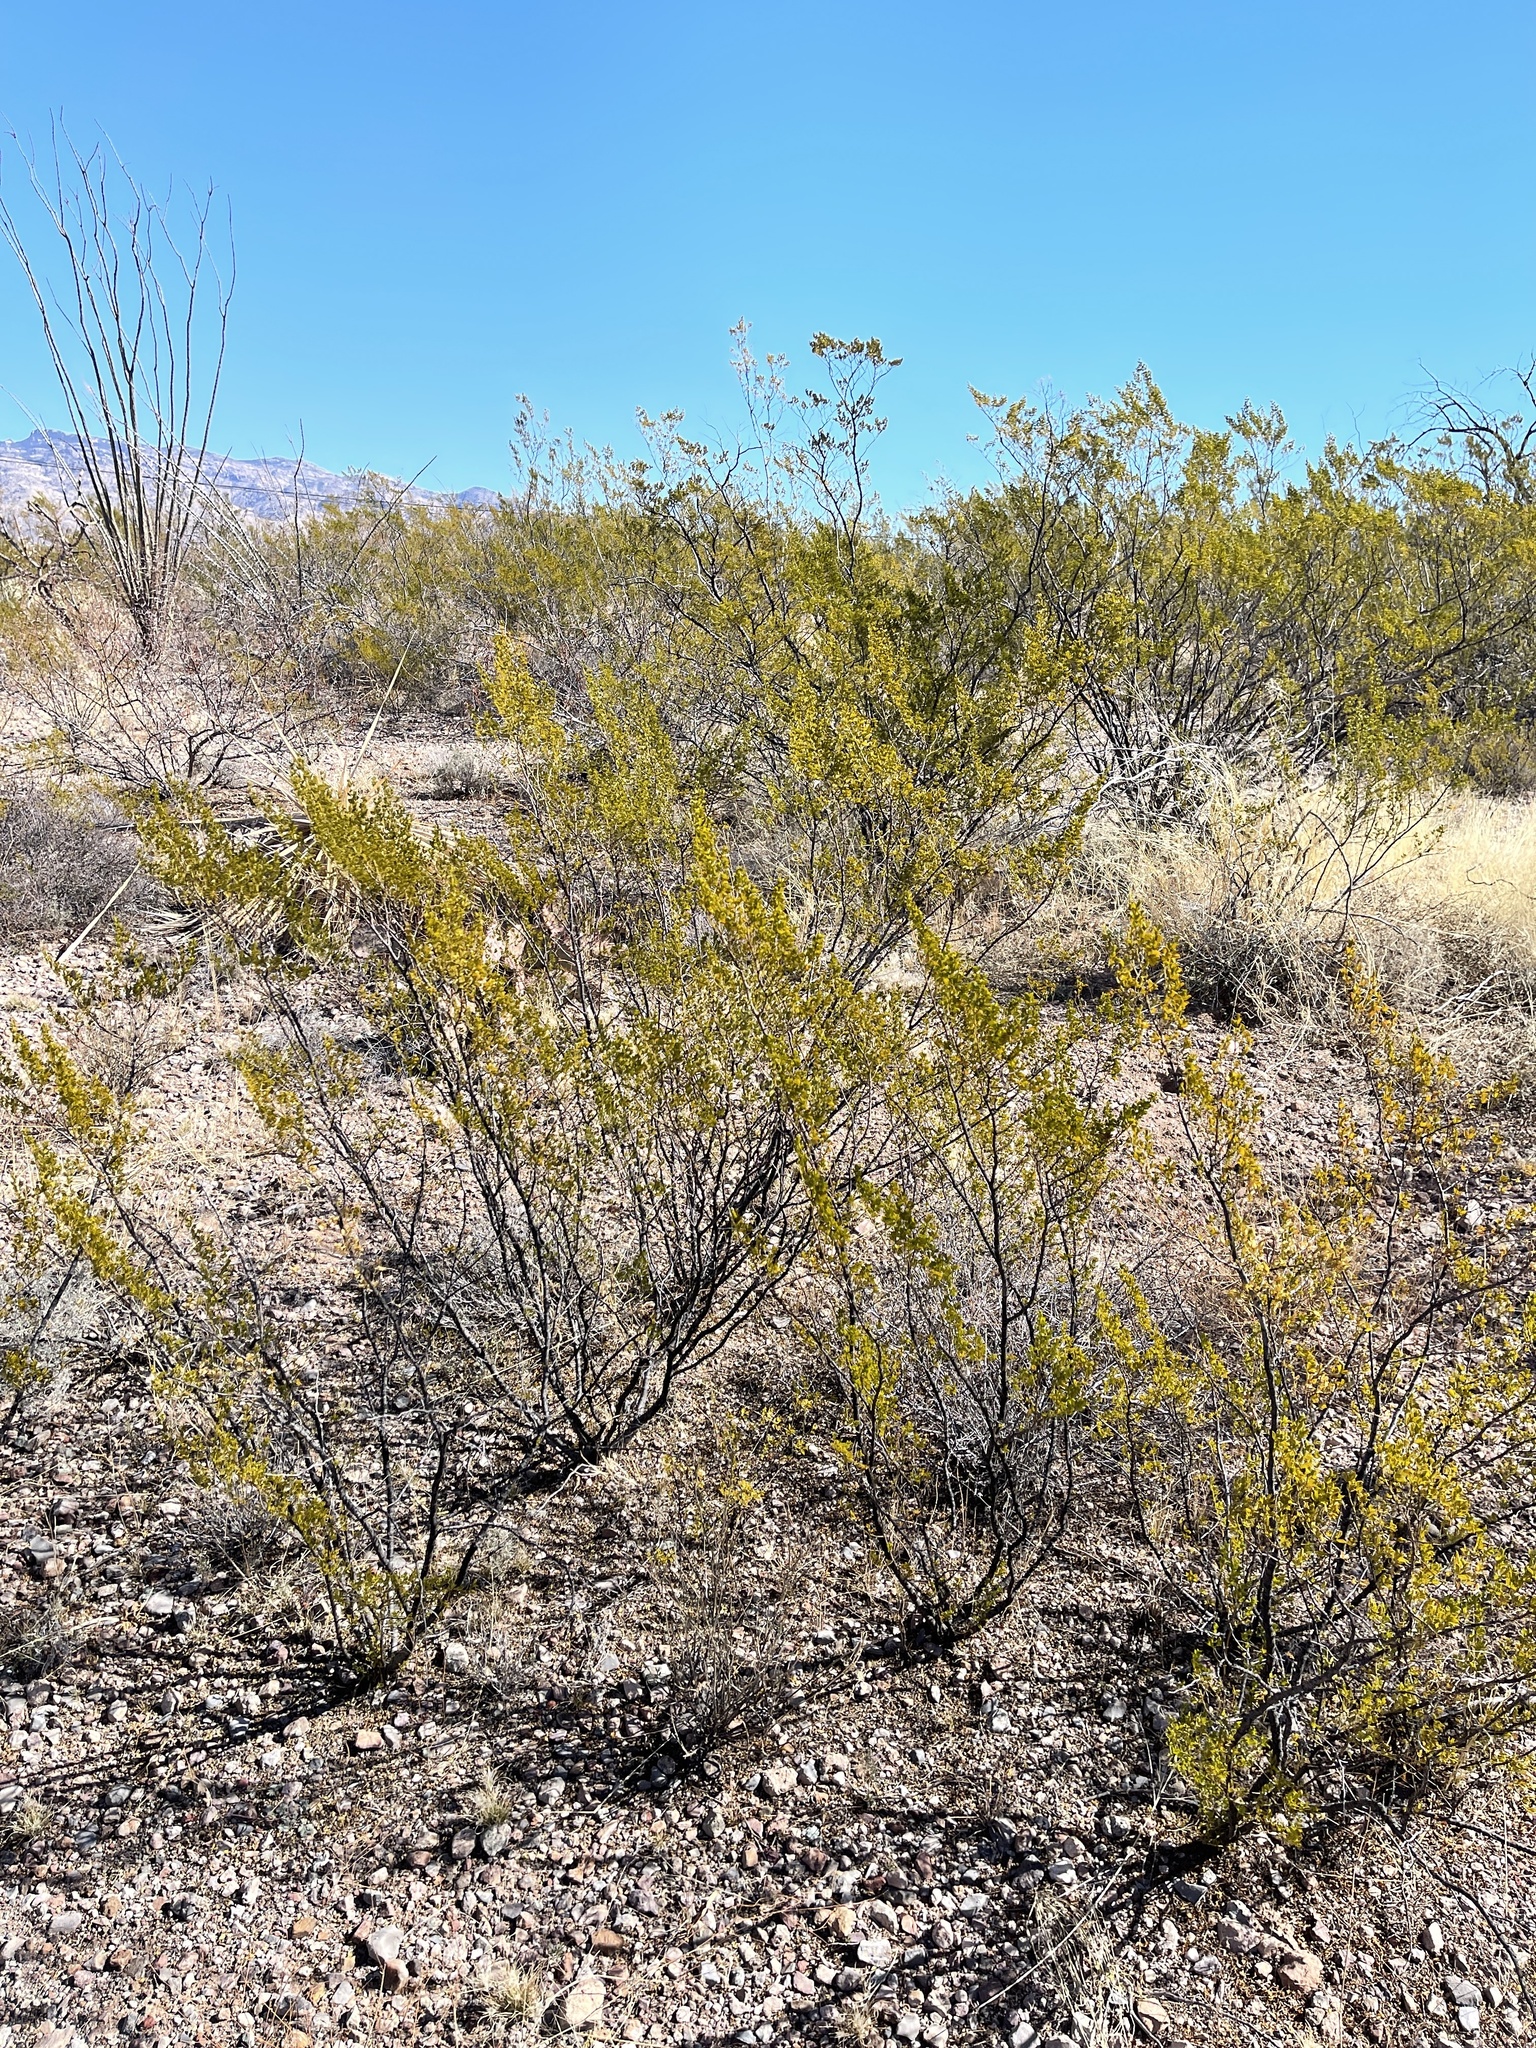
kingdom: Plantae
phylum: Tracheophyta
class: Magnoliopsida
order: Zygophyllales
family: Zygophyllaceae
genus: Larrea
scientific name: Larrea tridentata
